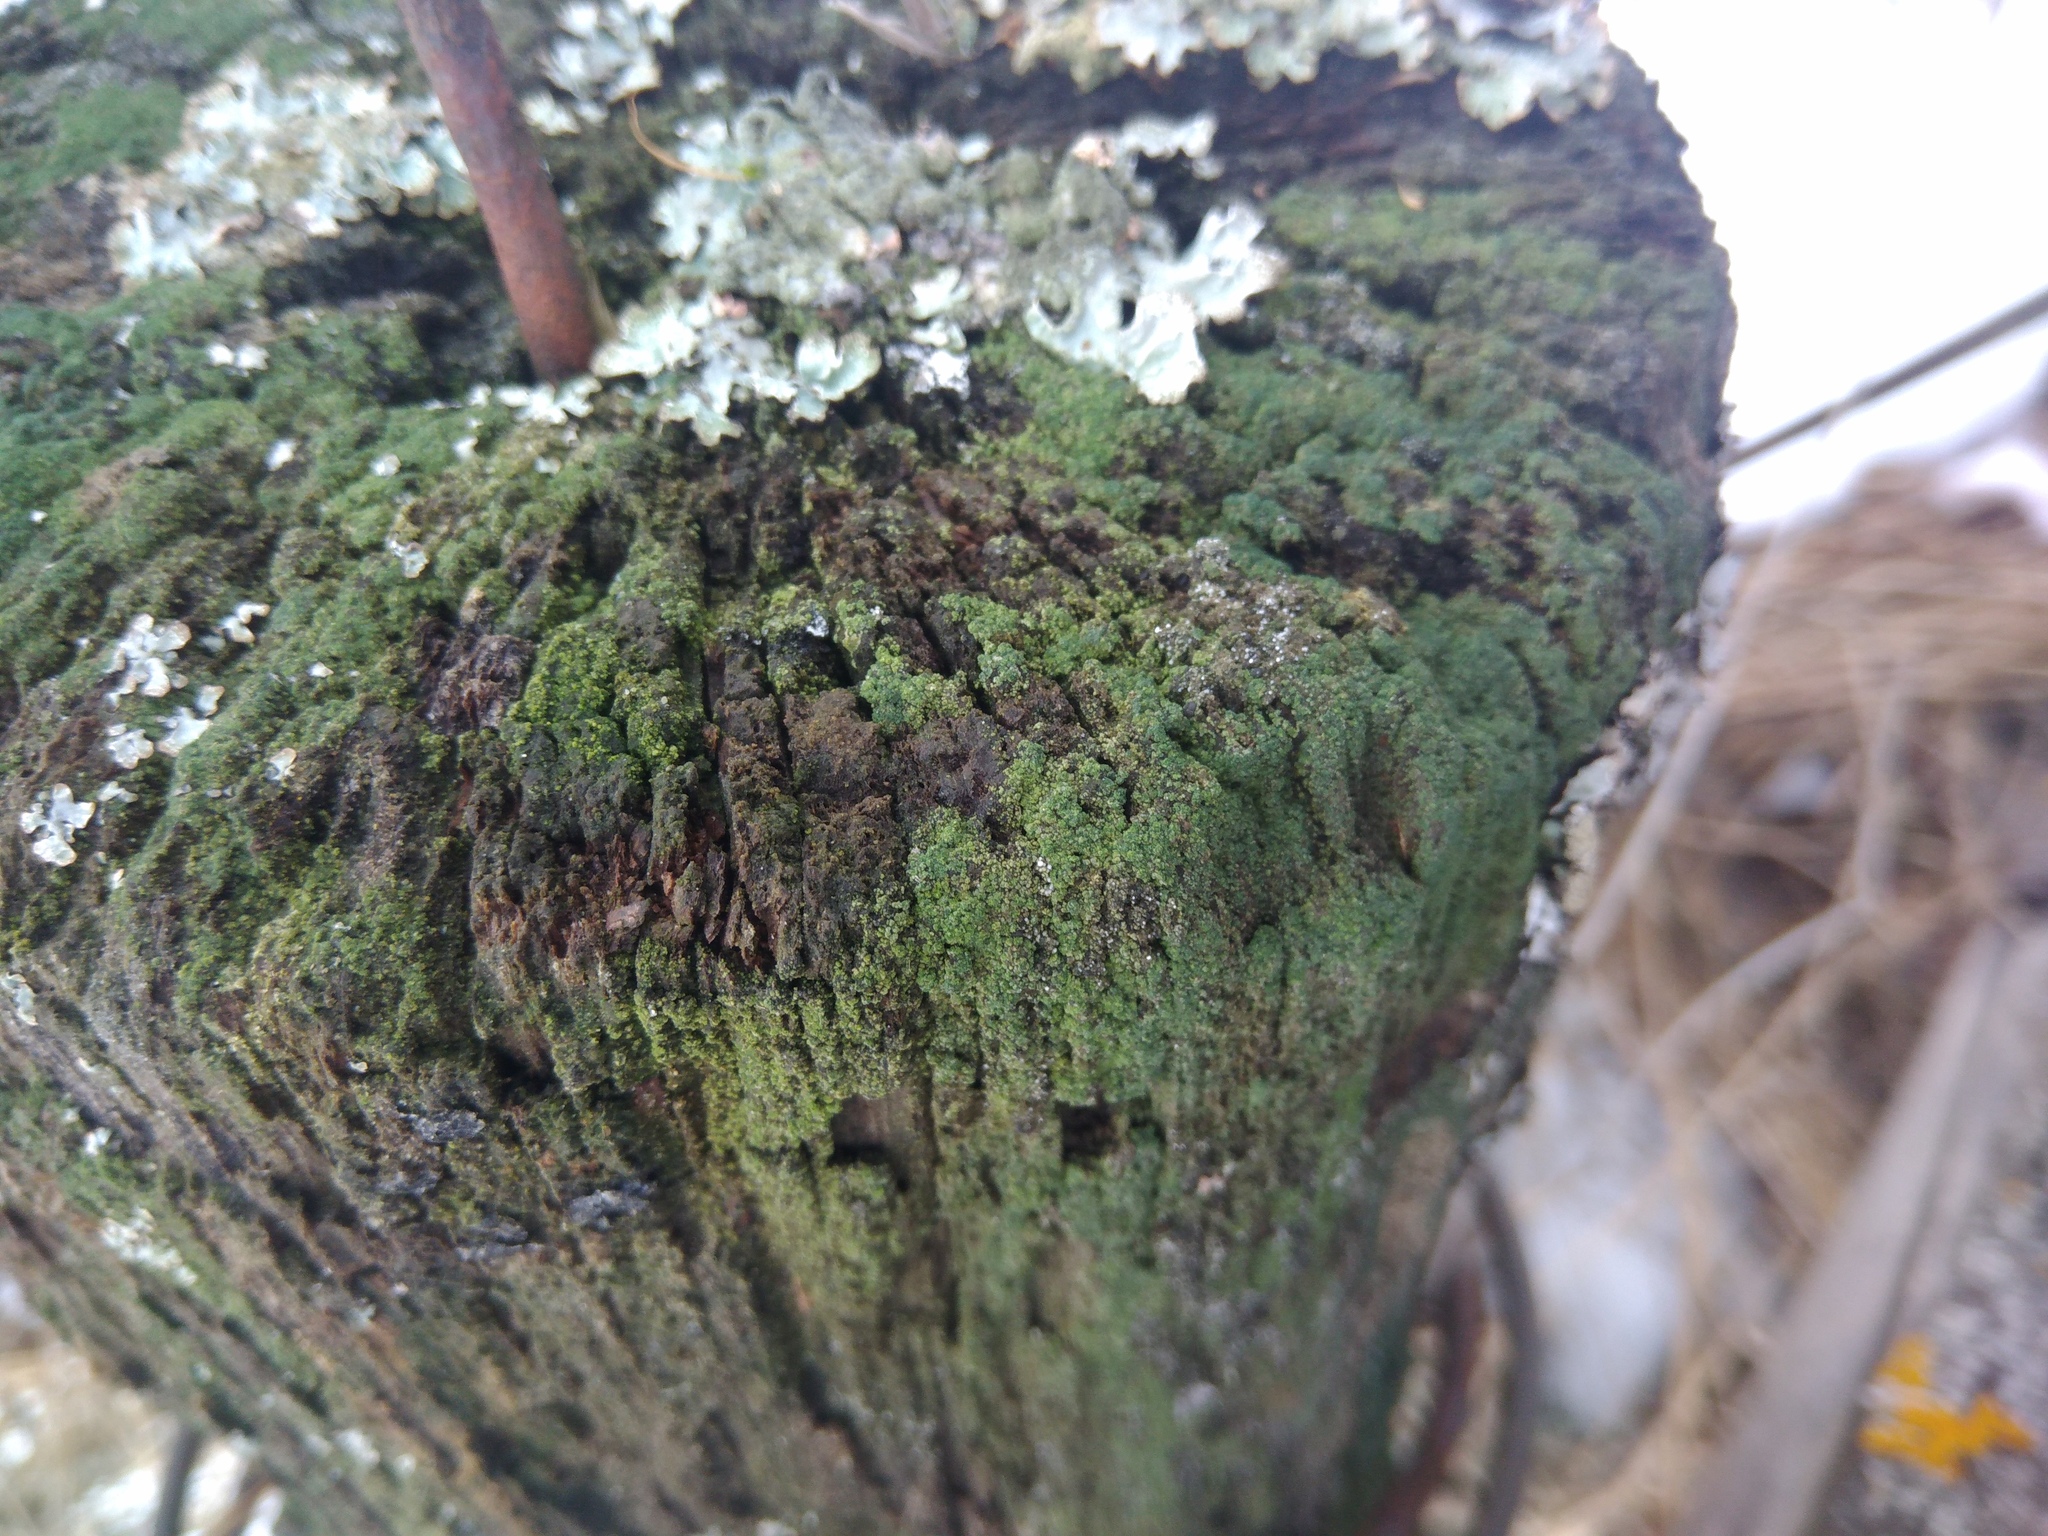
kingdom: Fungi
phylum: Ascomycota
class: Lecanoromycetes
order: Baeomycetales
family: Trapeliaceae
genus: Trapeliopsis
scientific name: Trapeliopsis flexuosa
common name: Board lichen
